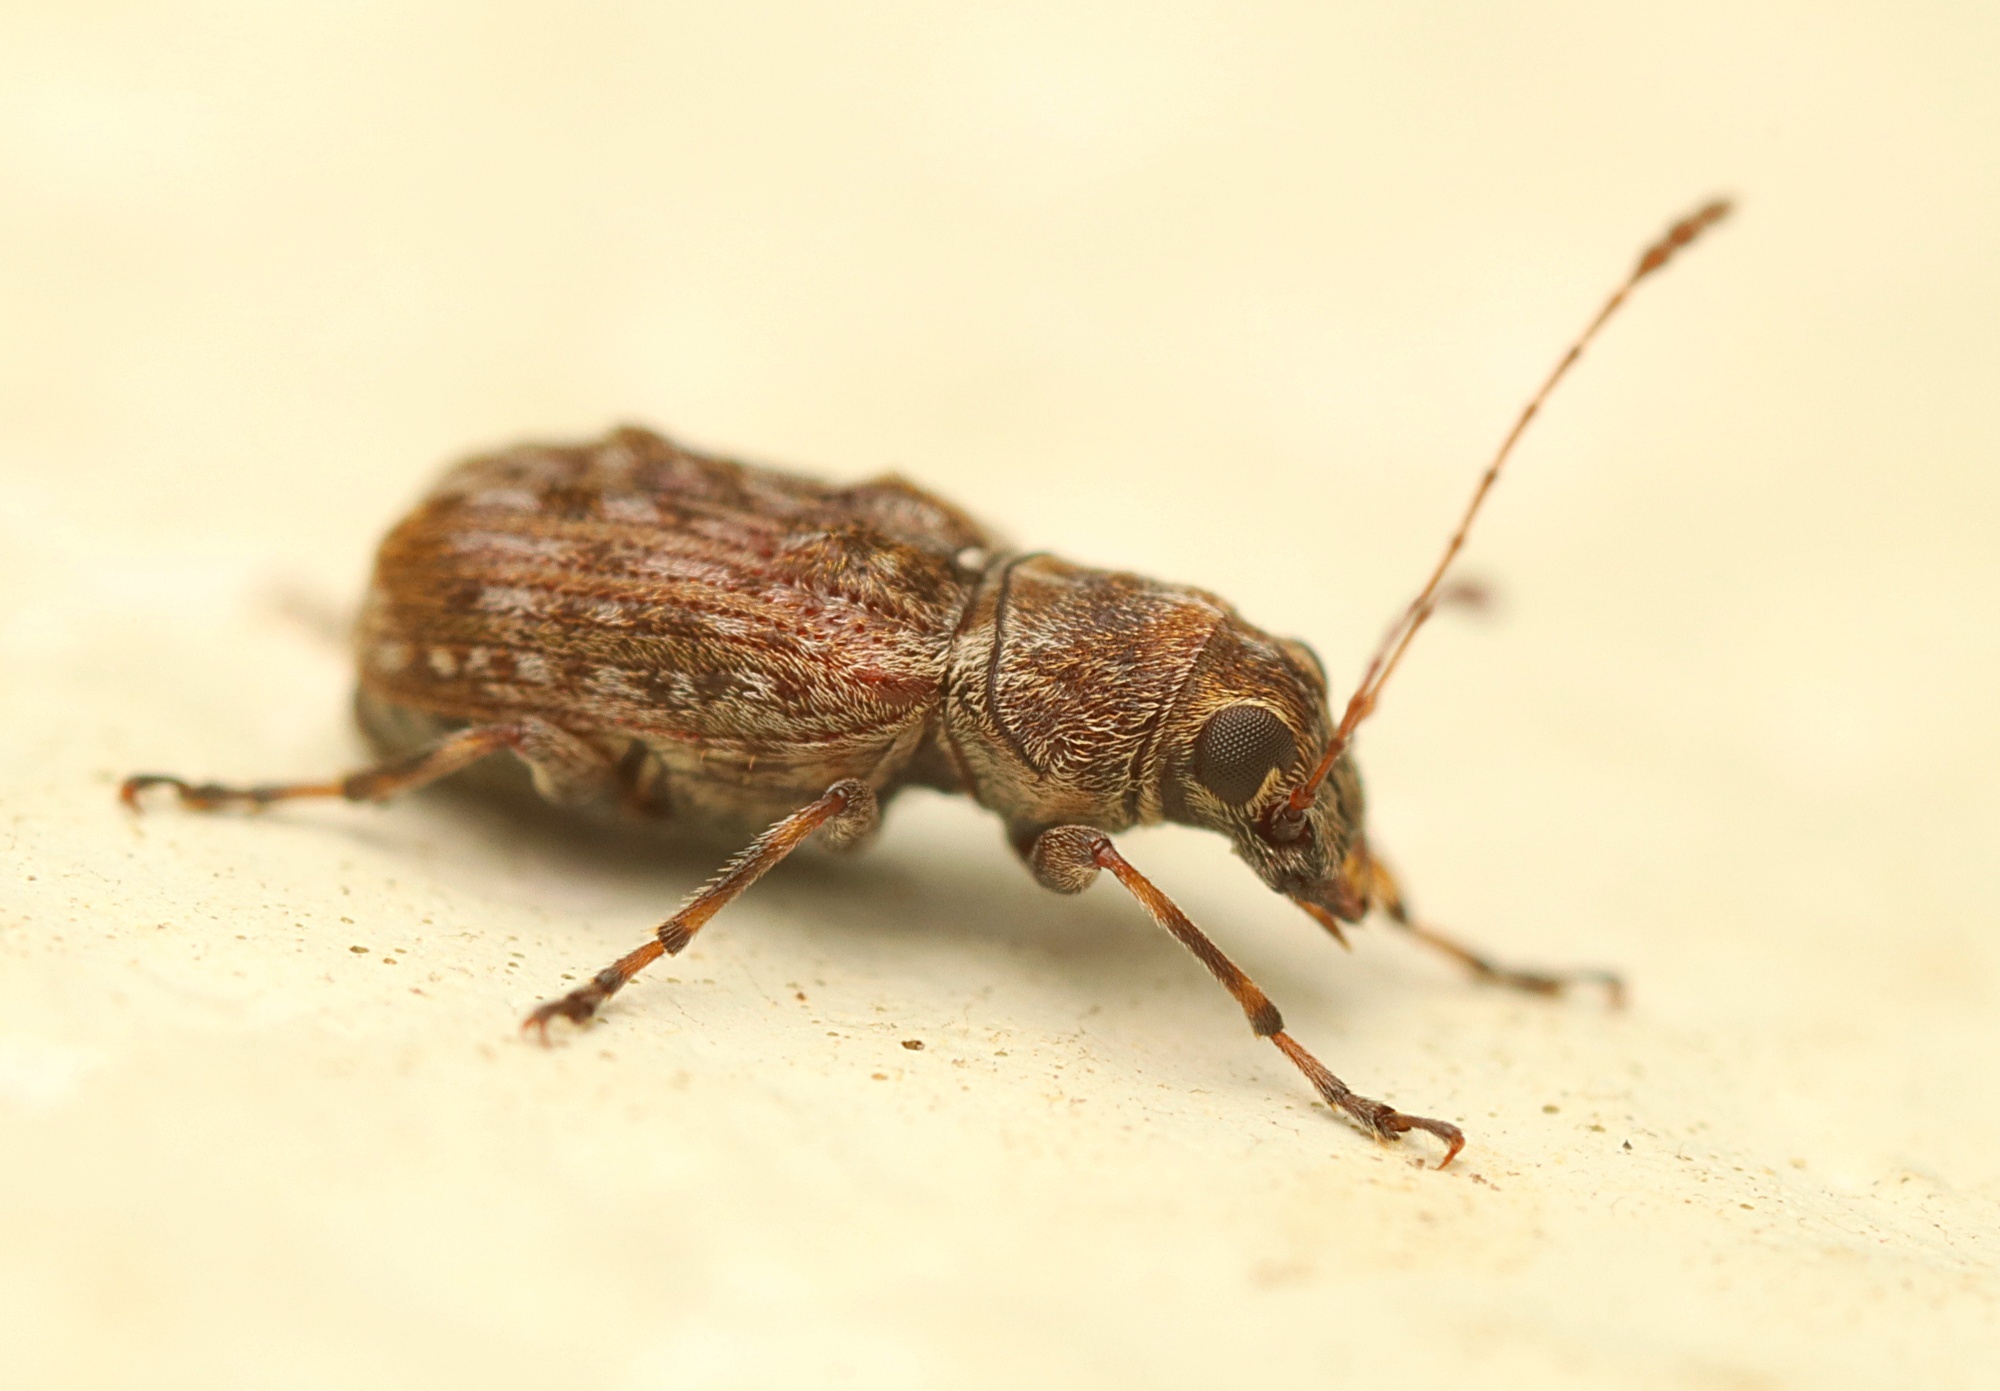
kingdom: Animalia
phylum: Arthropoda
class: Insecta
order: Coleoptera
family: Anthribidae
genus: Phymatus
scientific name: Phymatus
